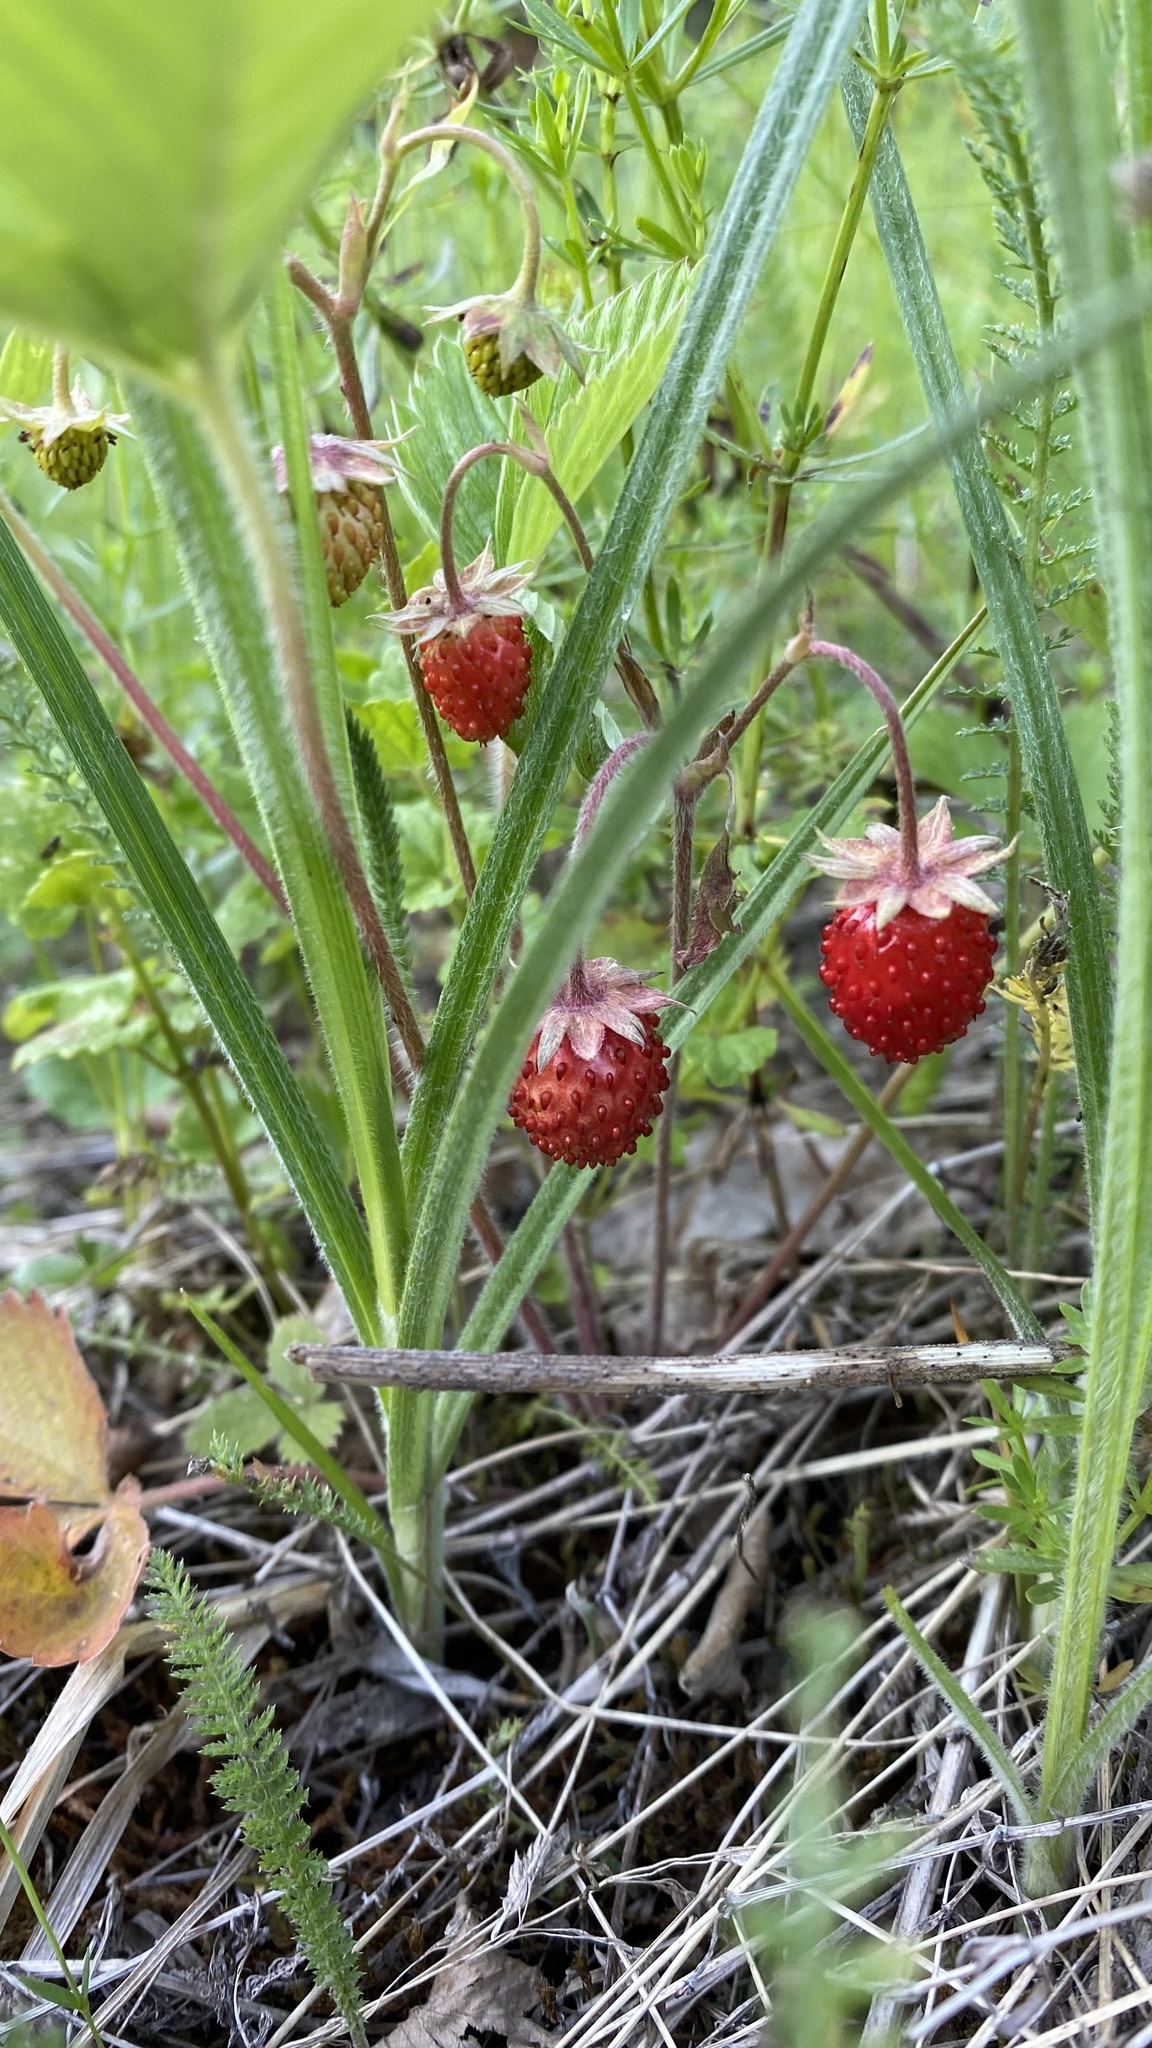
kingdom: Plantae
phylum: Tracheophyta
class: Magnoliopsida
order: Rosales
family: Rosaceae
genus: Fragaria
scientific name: Fragaria vesca
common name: Wild strawberry
